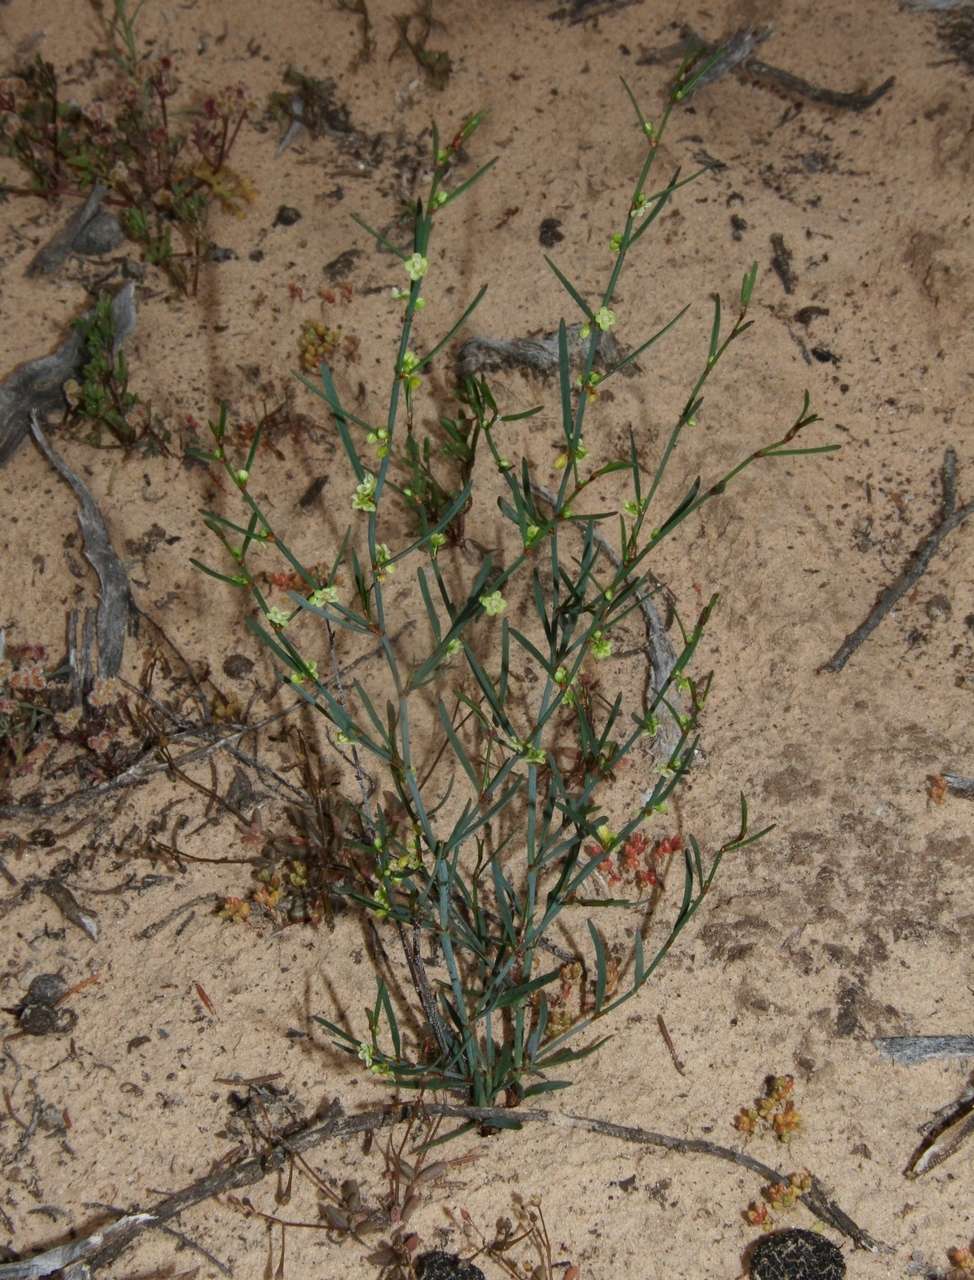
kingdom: Plantae
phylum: Tracheophyta
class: Magnoliopsida
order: Caryophyllales
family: Polygonaceae
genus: Muehlenbeckia
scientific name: Muehlenbeckia diclina
